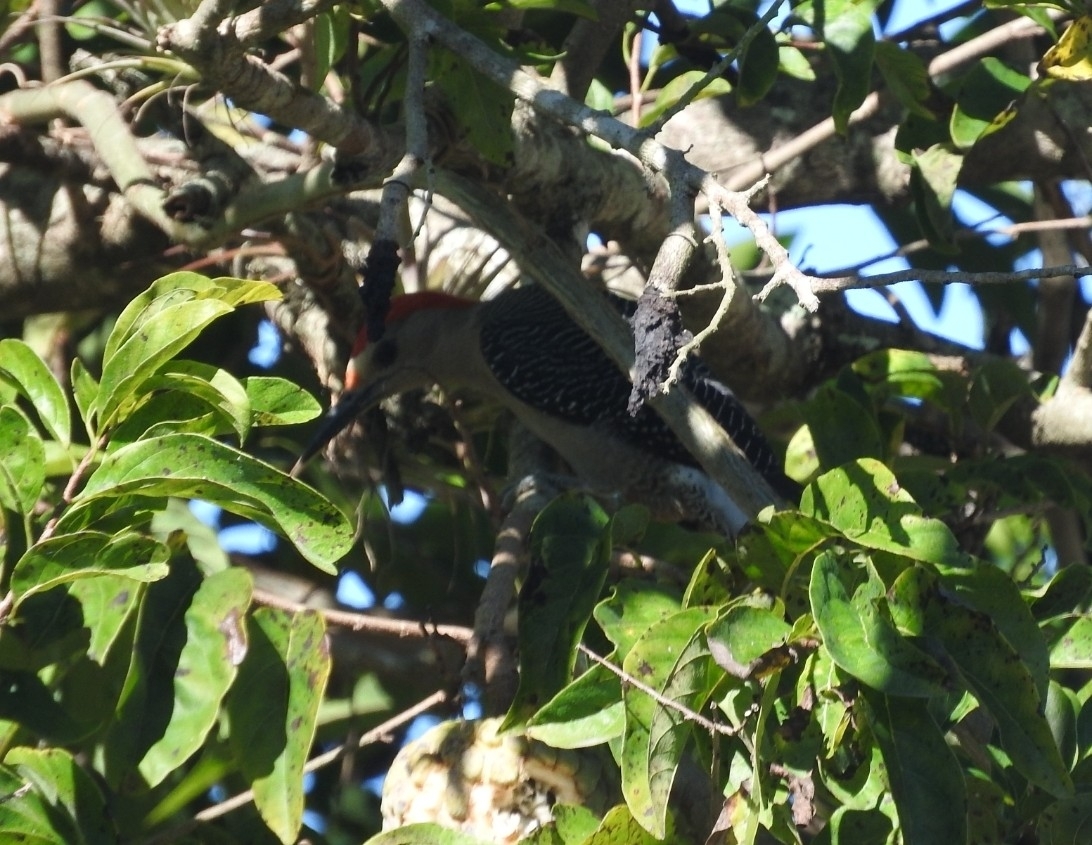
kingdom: Animalia
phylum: Chordata
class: Aves
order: Piciformes
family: Picidae
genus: Melanerpes
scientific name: Melanerpes aurifrons
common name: Golden-fronted woodpecker
